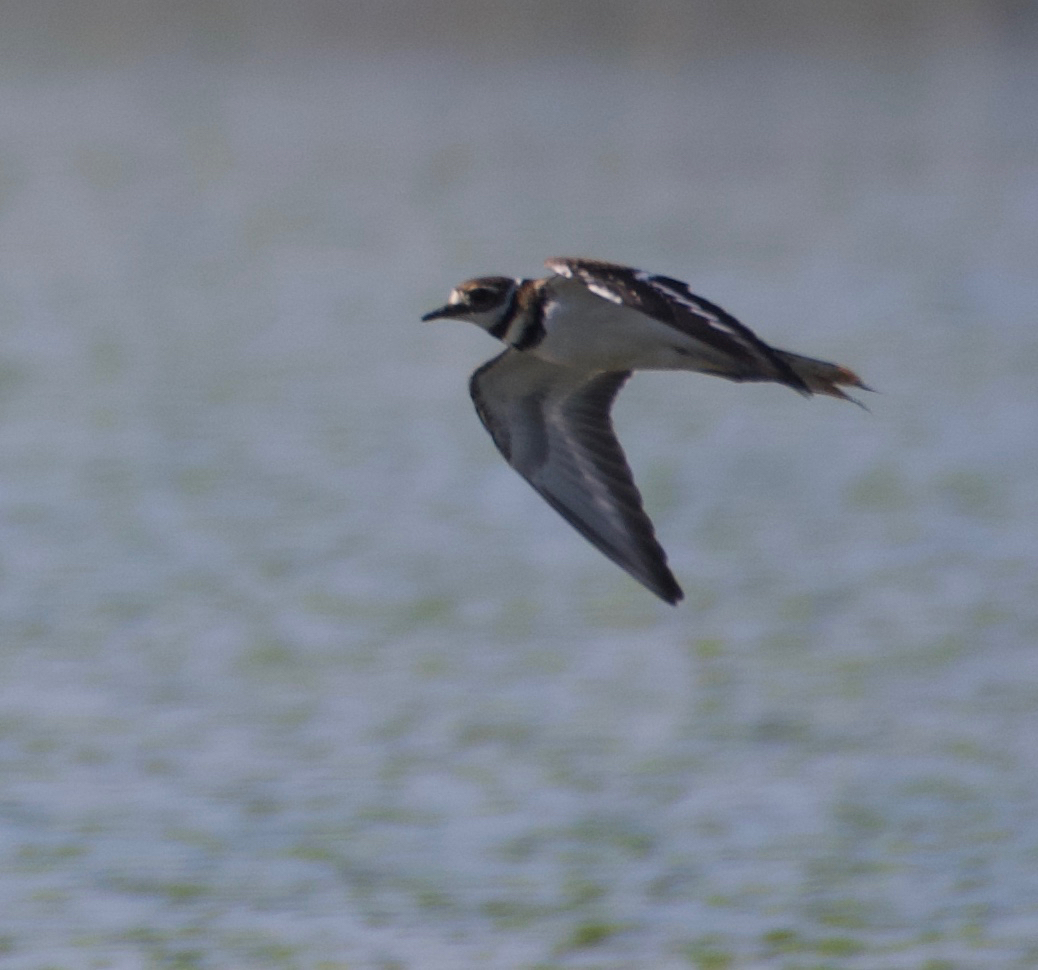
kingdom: Animalia
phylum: Chordata
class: Aves
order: Charadriiformes
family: Charadriidae
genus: Charadrius
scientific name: Charadrius vociferus
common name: Killdeer
